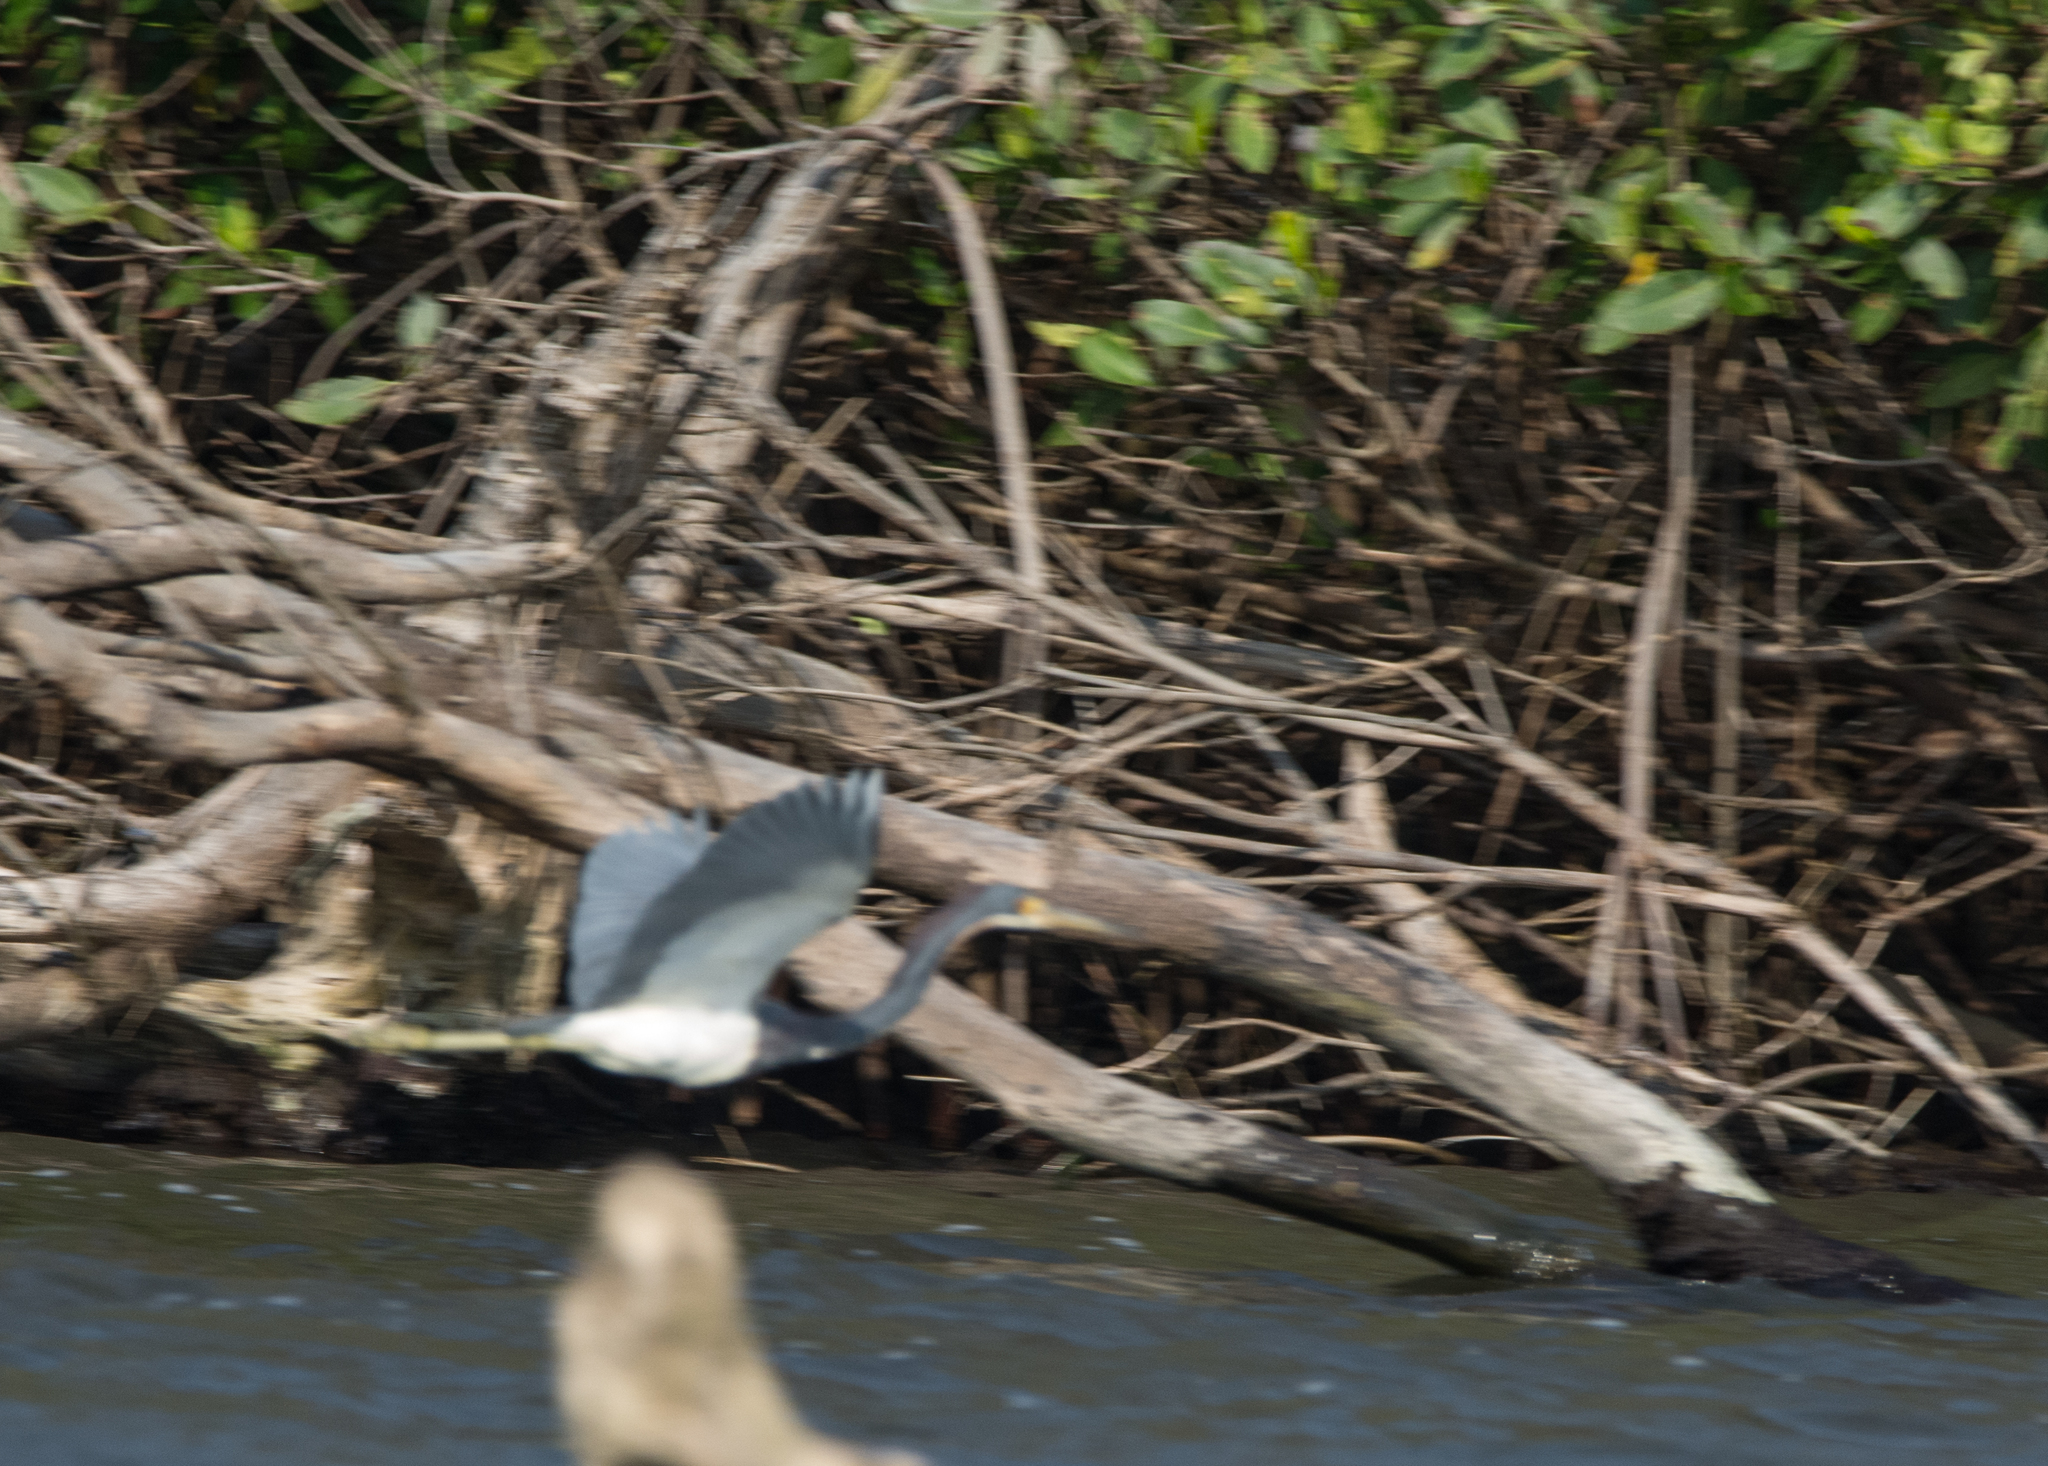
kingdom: Animalia
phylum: Chordata
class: Aves
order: Pelecaniformes
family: Ardeidae
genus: Egretta
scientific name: Egretta tricolor
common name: Tricolored heron
